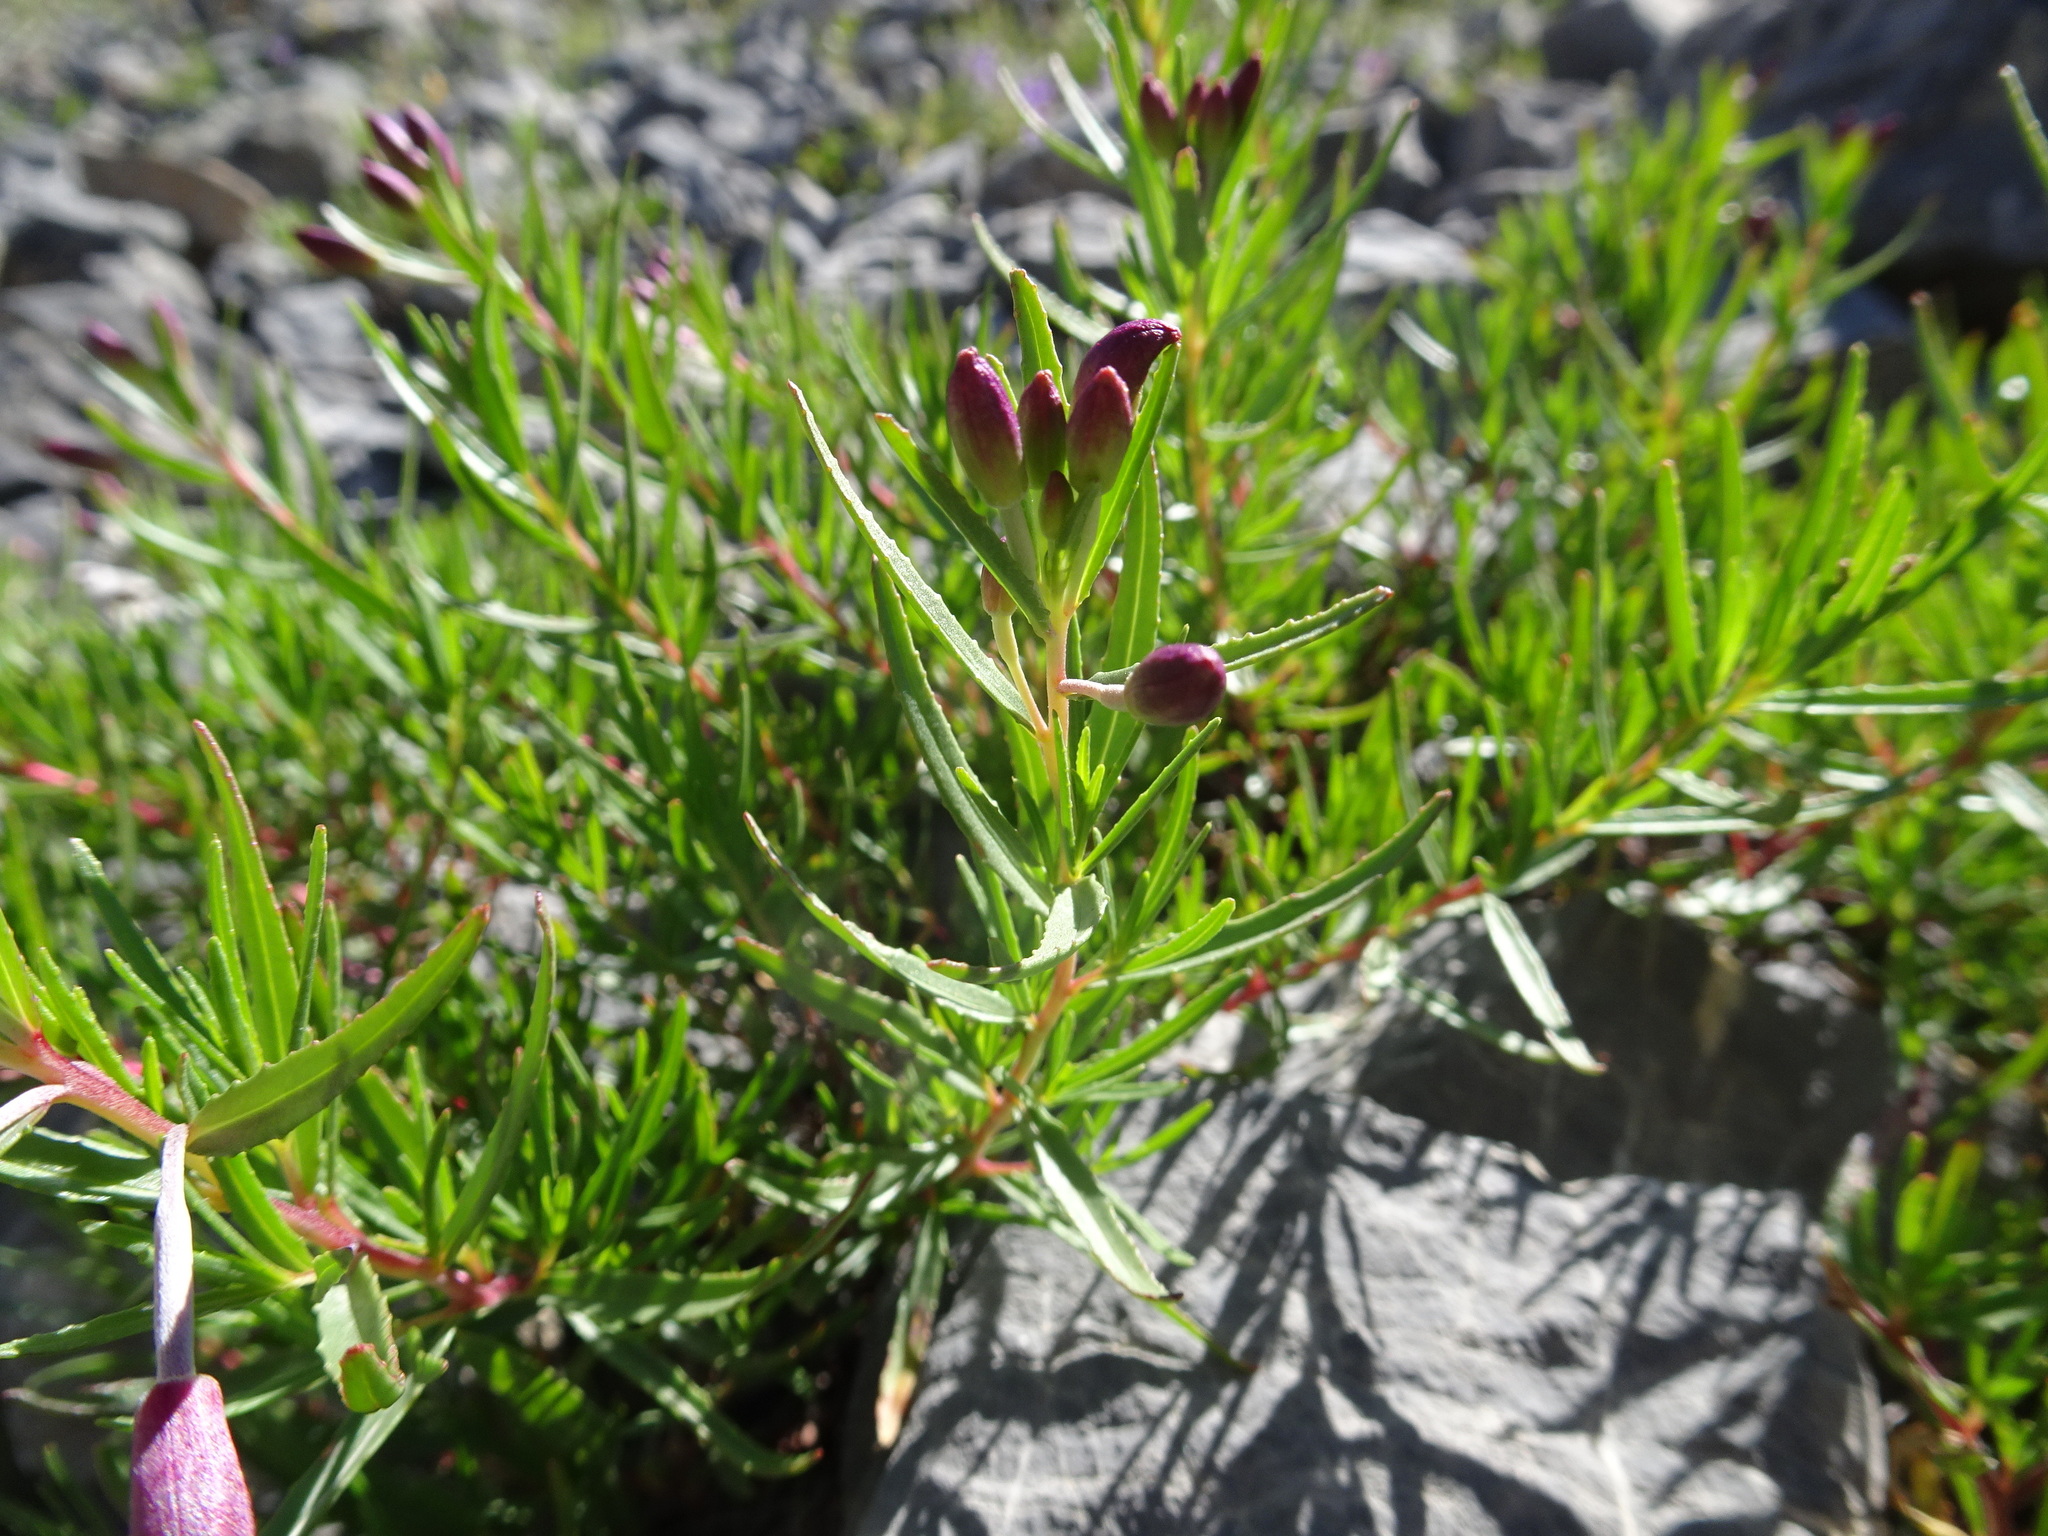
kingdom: Plantae
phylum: Tracheophyta
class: Magnoliopsida
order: Myrtales
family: Onagraceae
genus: Chamaenerion
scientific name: Chamaenerion fleischeri
